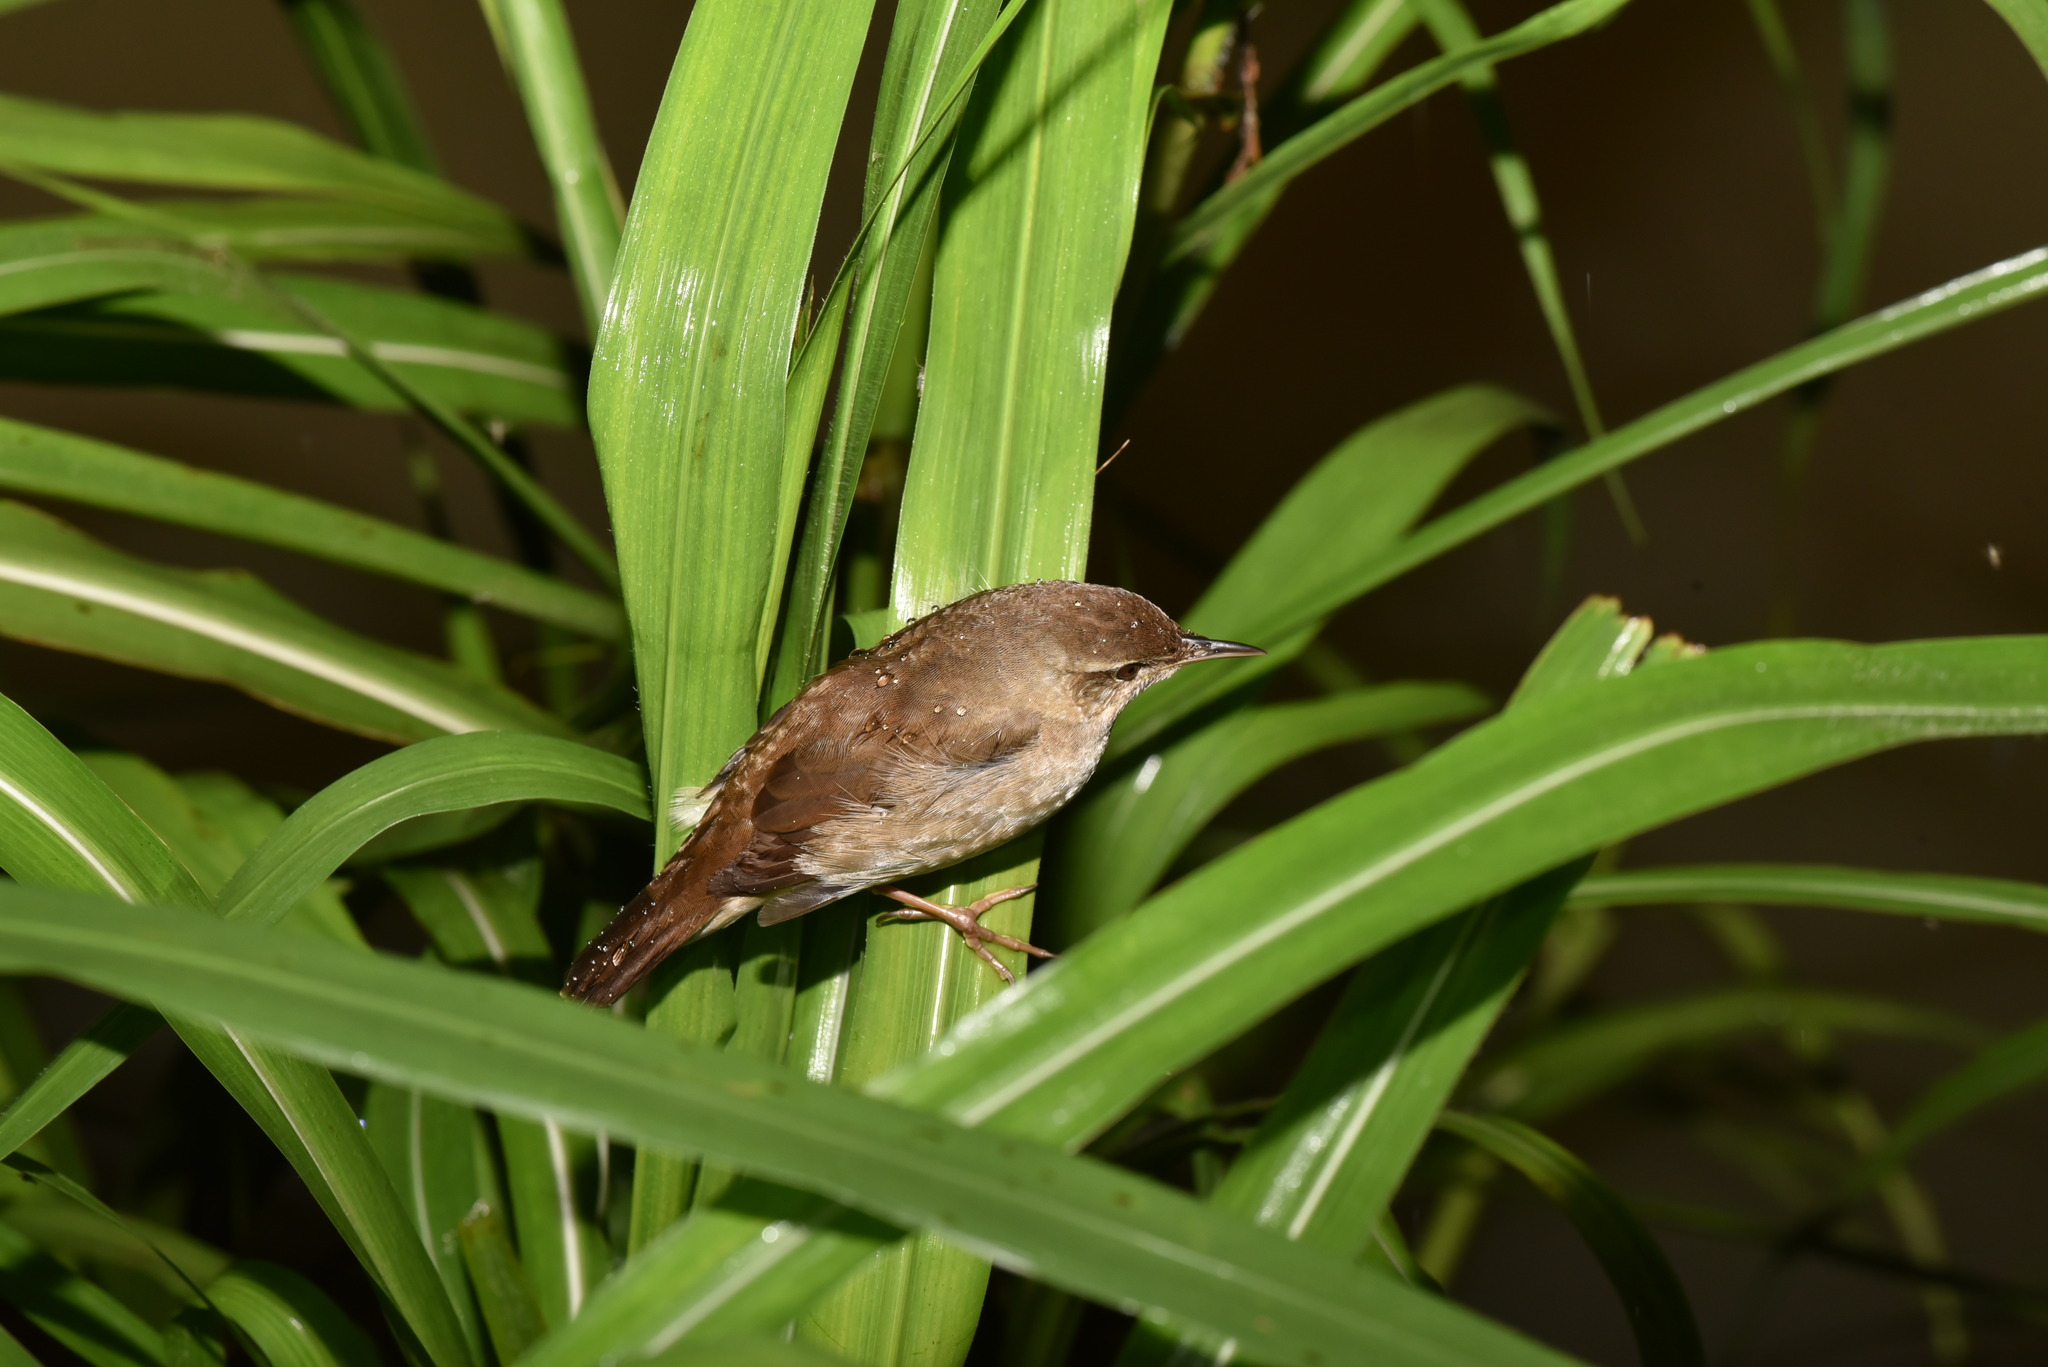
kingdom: Animalia
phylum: Chordata
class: Aves
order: Passeriformes
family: Locustellidae
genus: Locustella
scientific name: Locustella ochotensis
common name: Middendorff's grasshopper-warbler
